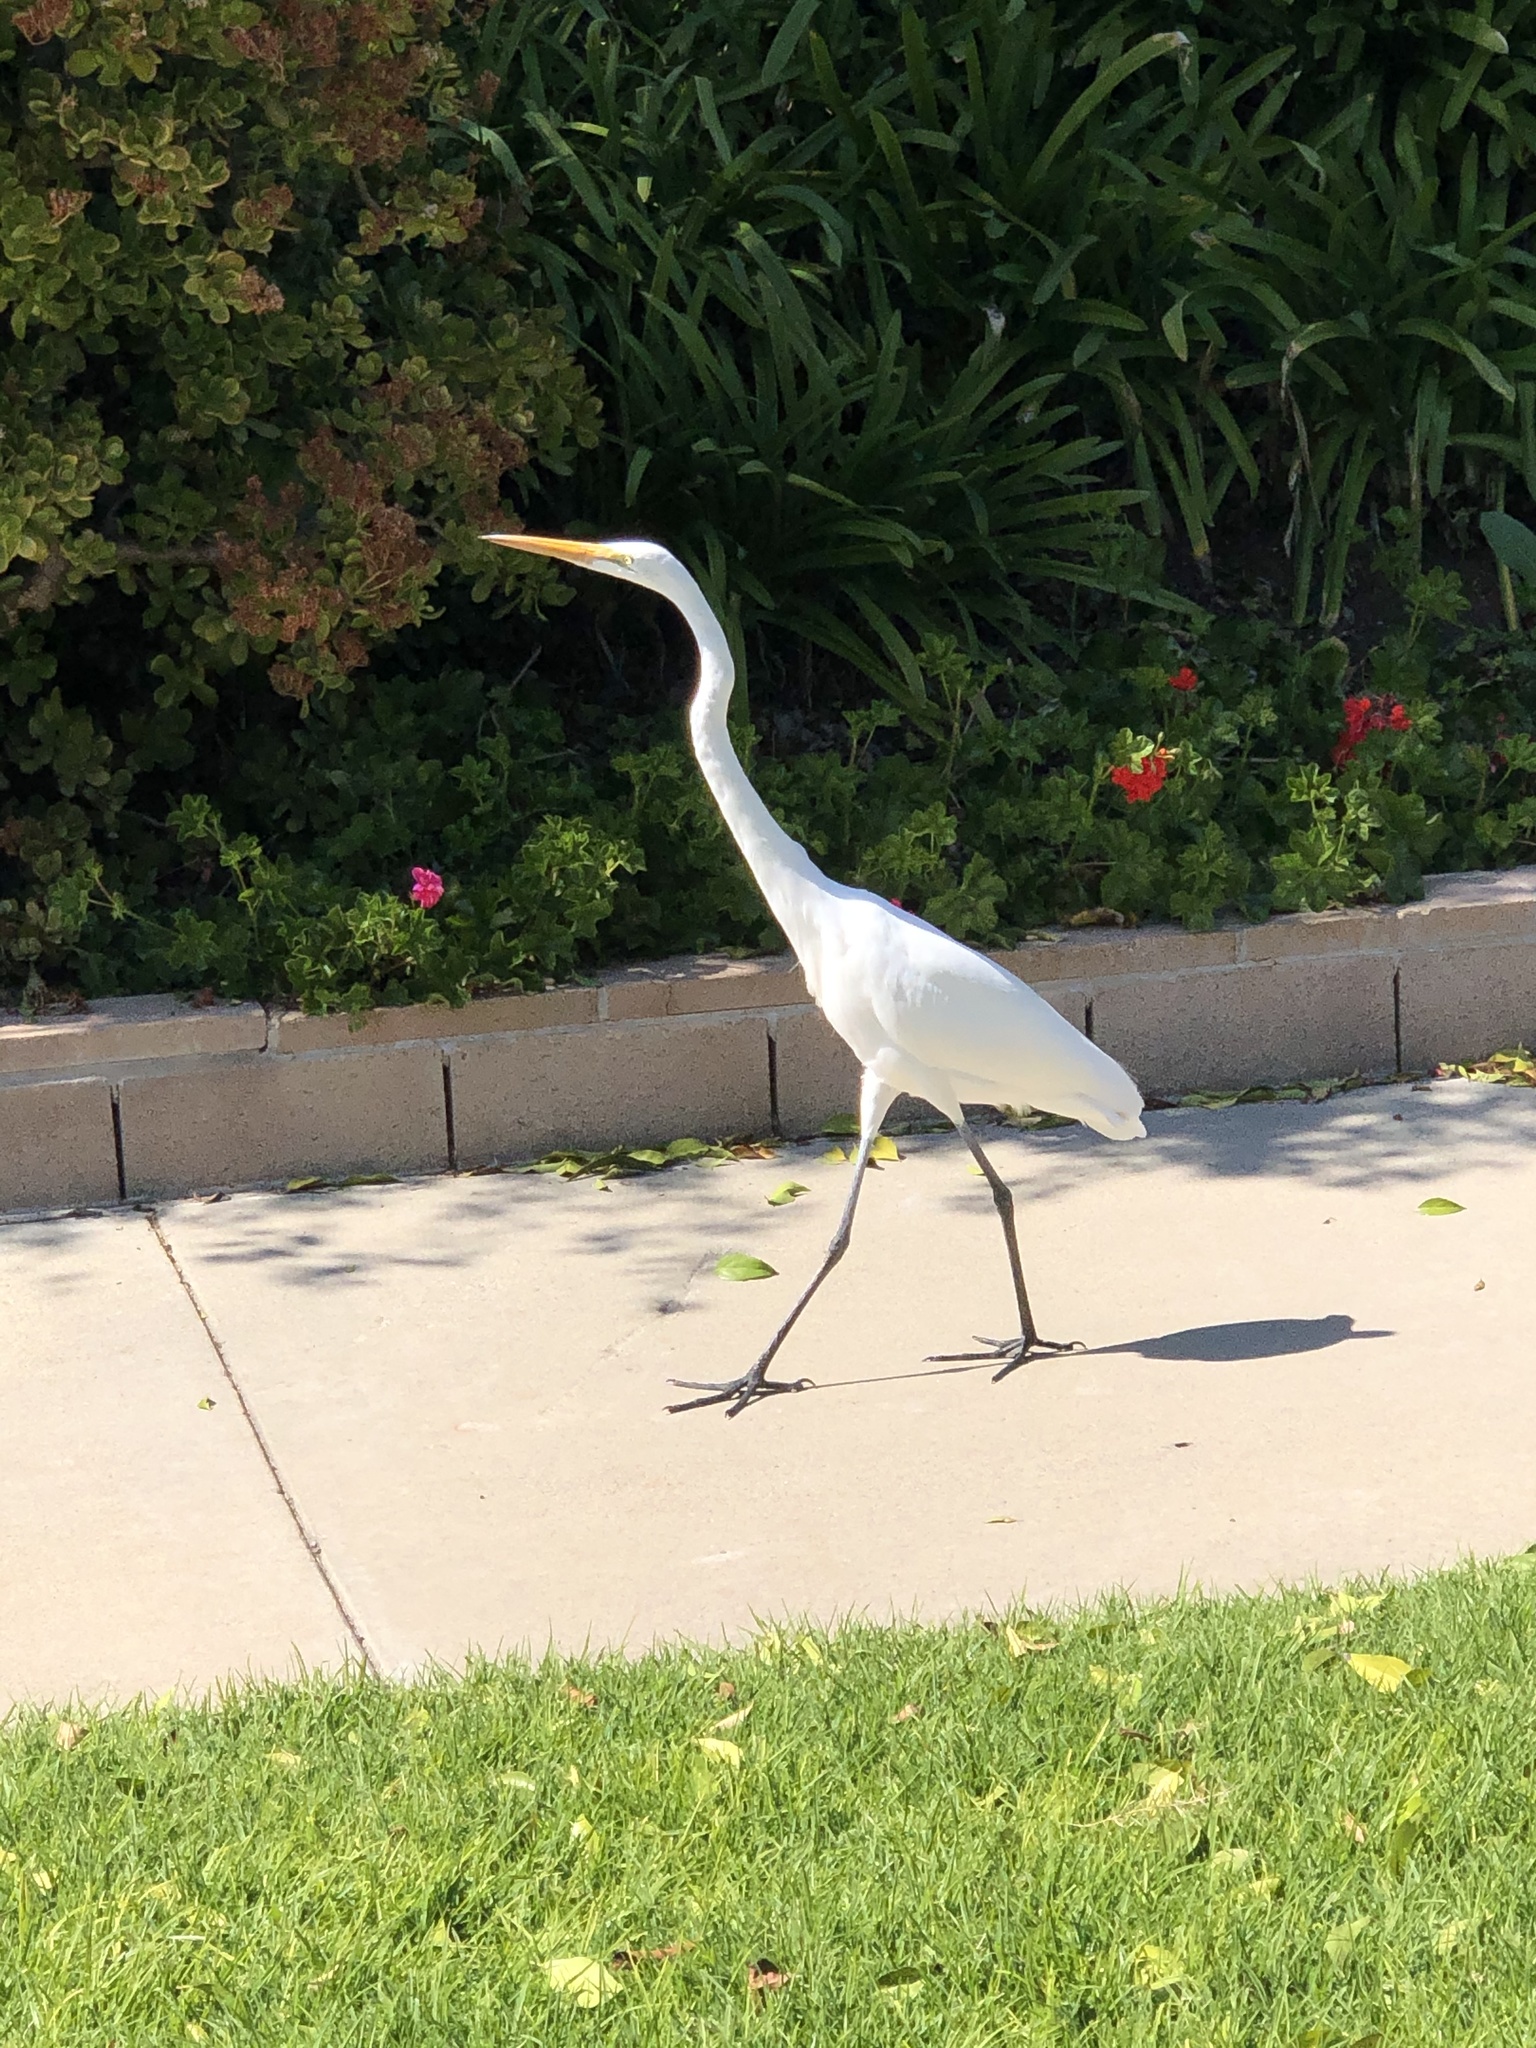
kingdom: Animalia
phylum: Chordata
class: Aves
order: Pelecaniformes
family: Ardeidae
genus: Ardea
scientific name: Ardea alba
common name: Great egret
